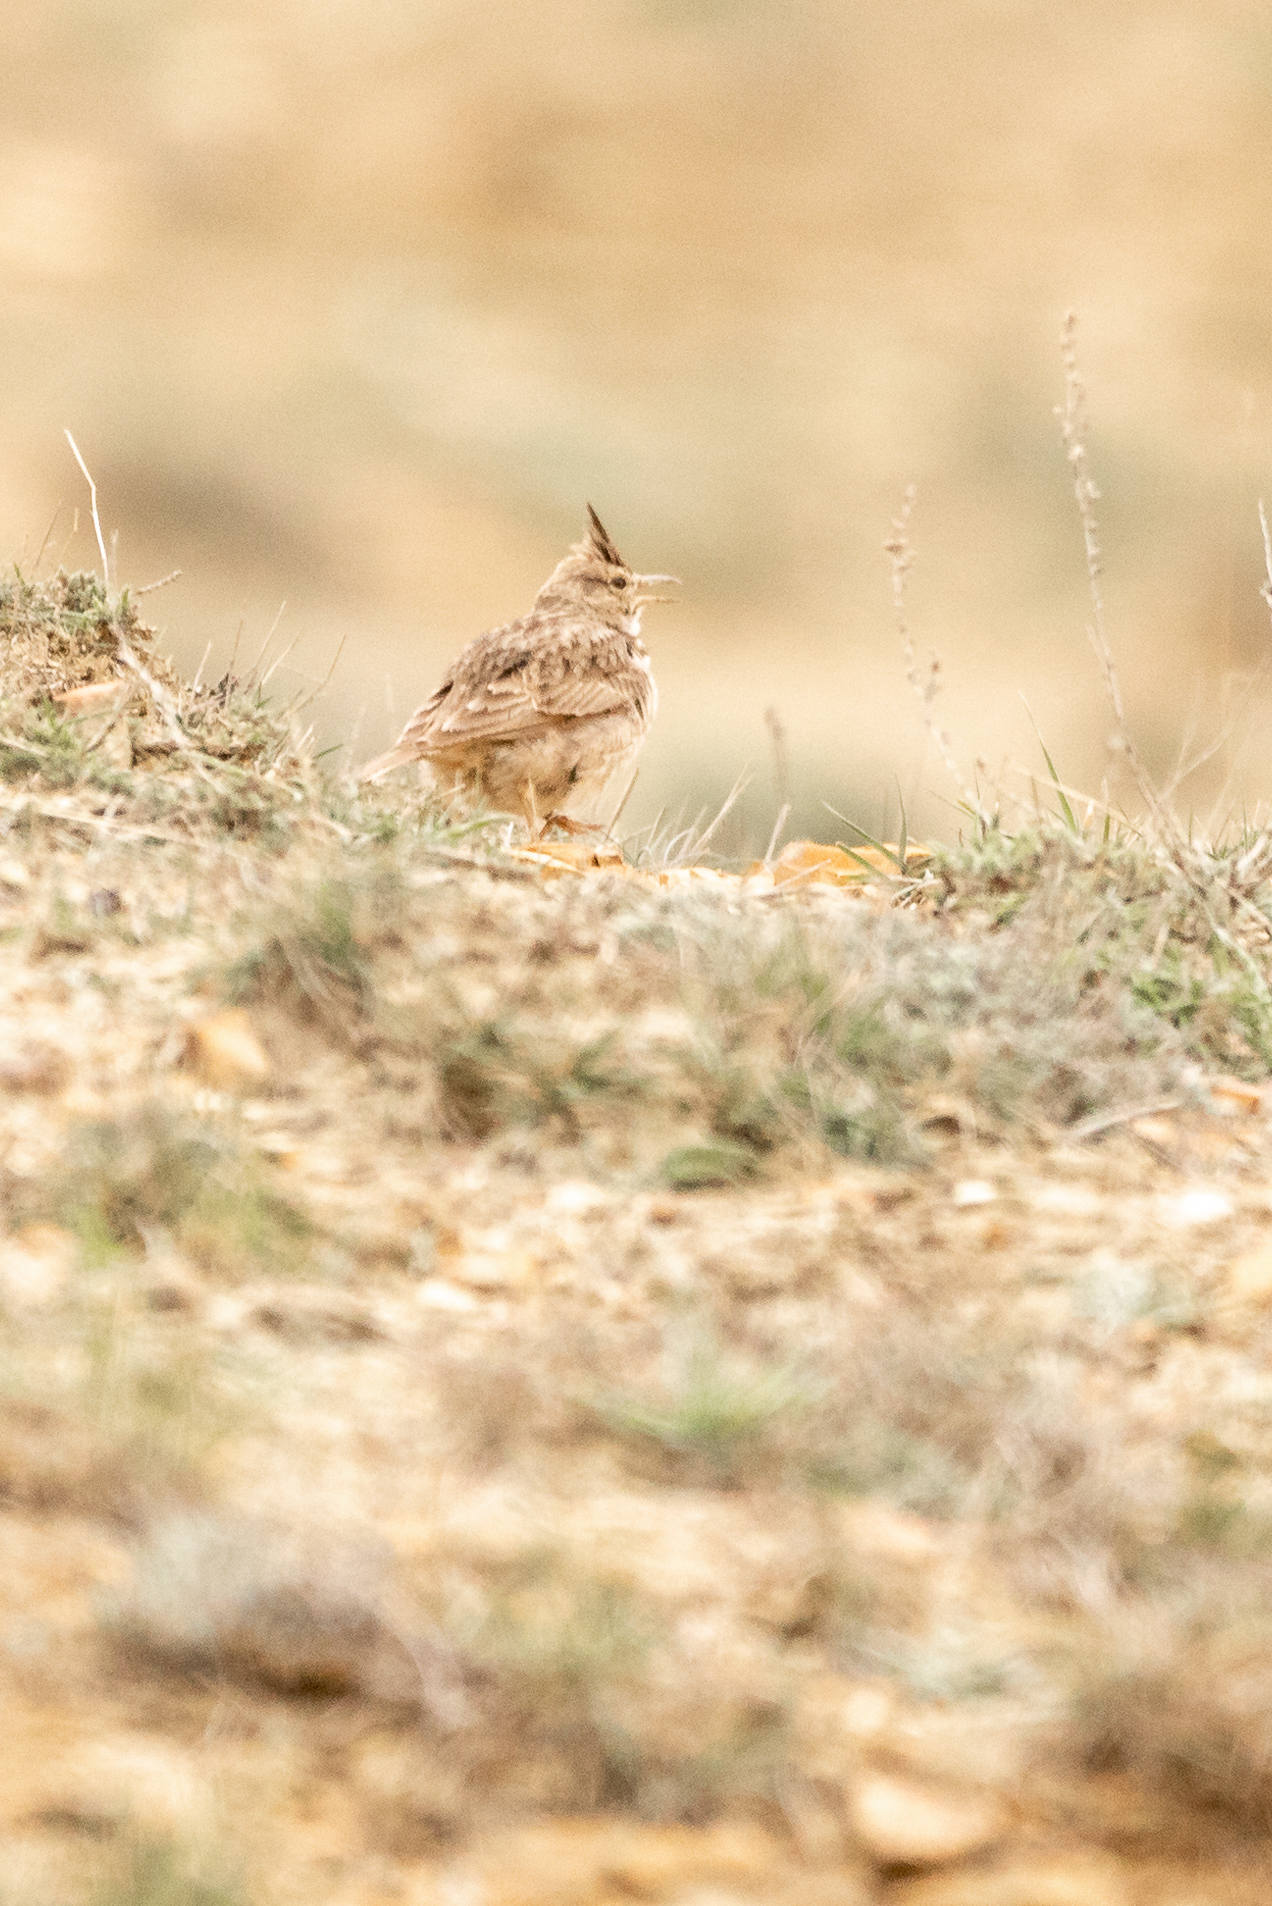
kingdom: Animalia
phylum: Chordata
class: Aves
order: Passeriformes
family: Alaudidae
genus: Galerida
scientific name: Galerida cristata
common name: Crested lark
